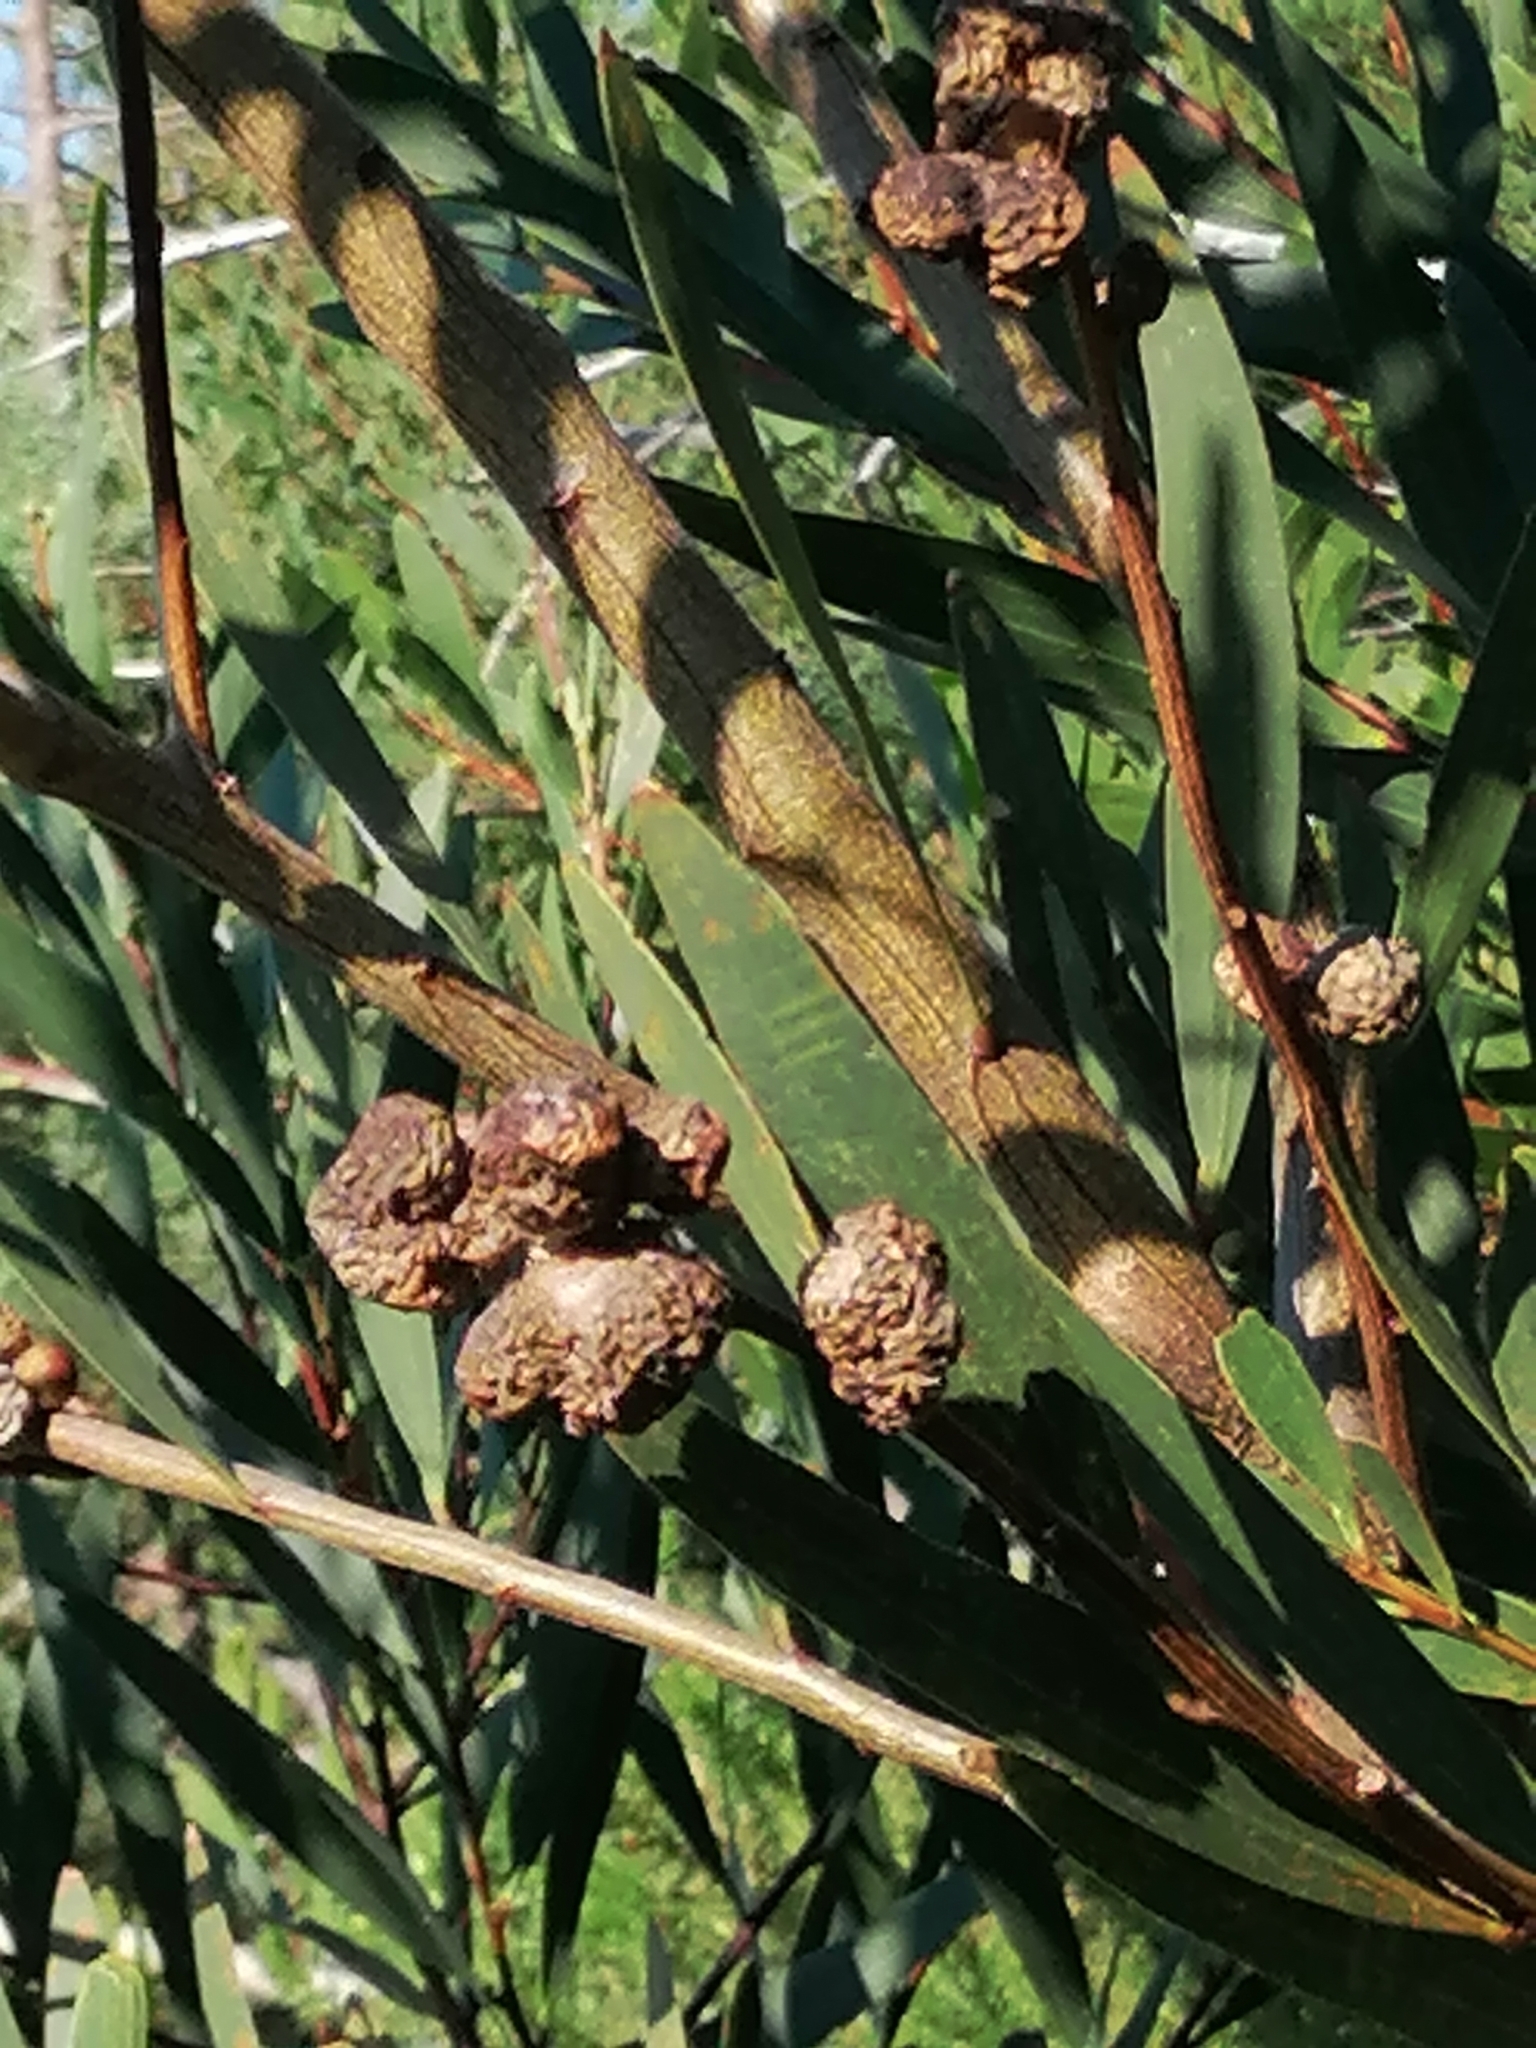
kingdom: Plantae
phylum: Tracheophyta
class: Magnoliopsida
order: Fabales
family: Fabaceae
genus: Acacia
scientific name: Acacia longifolia
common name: Sydney golden wattle
